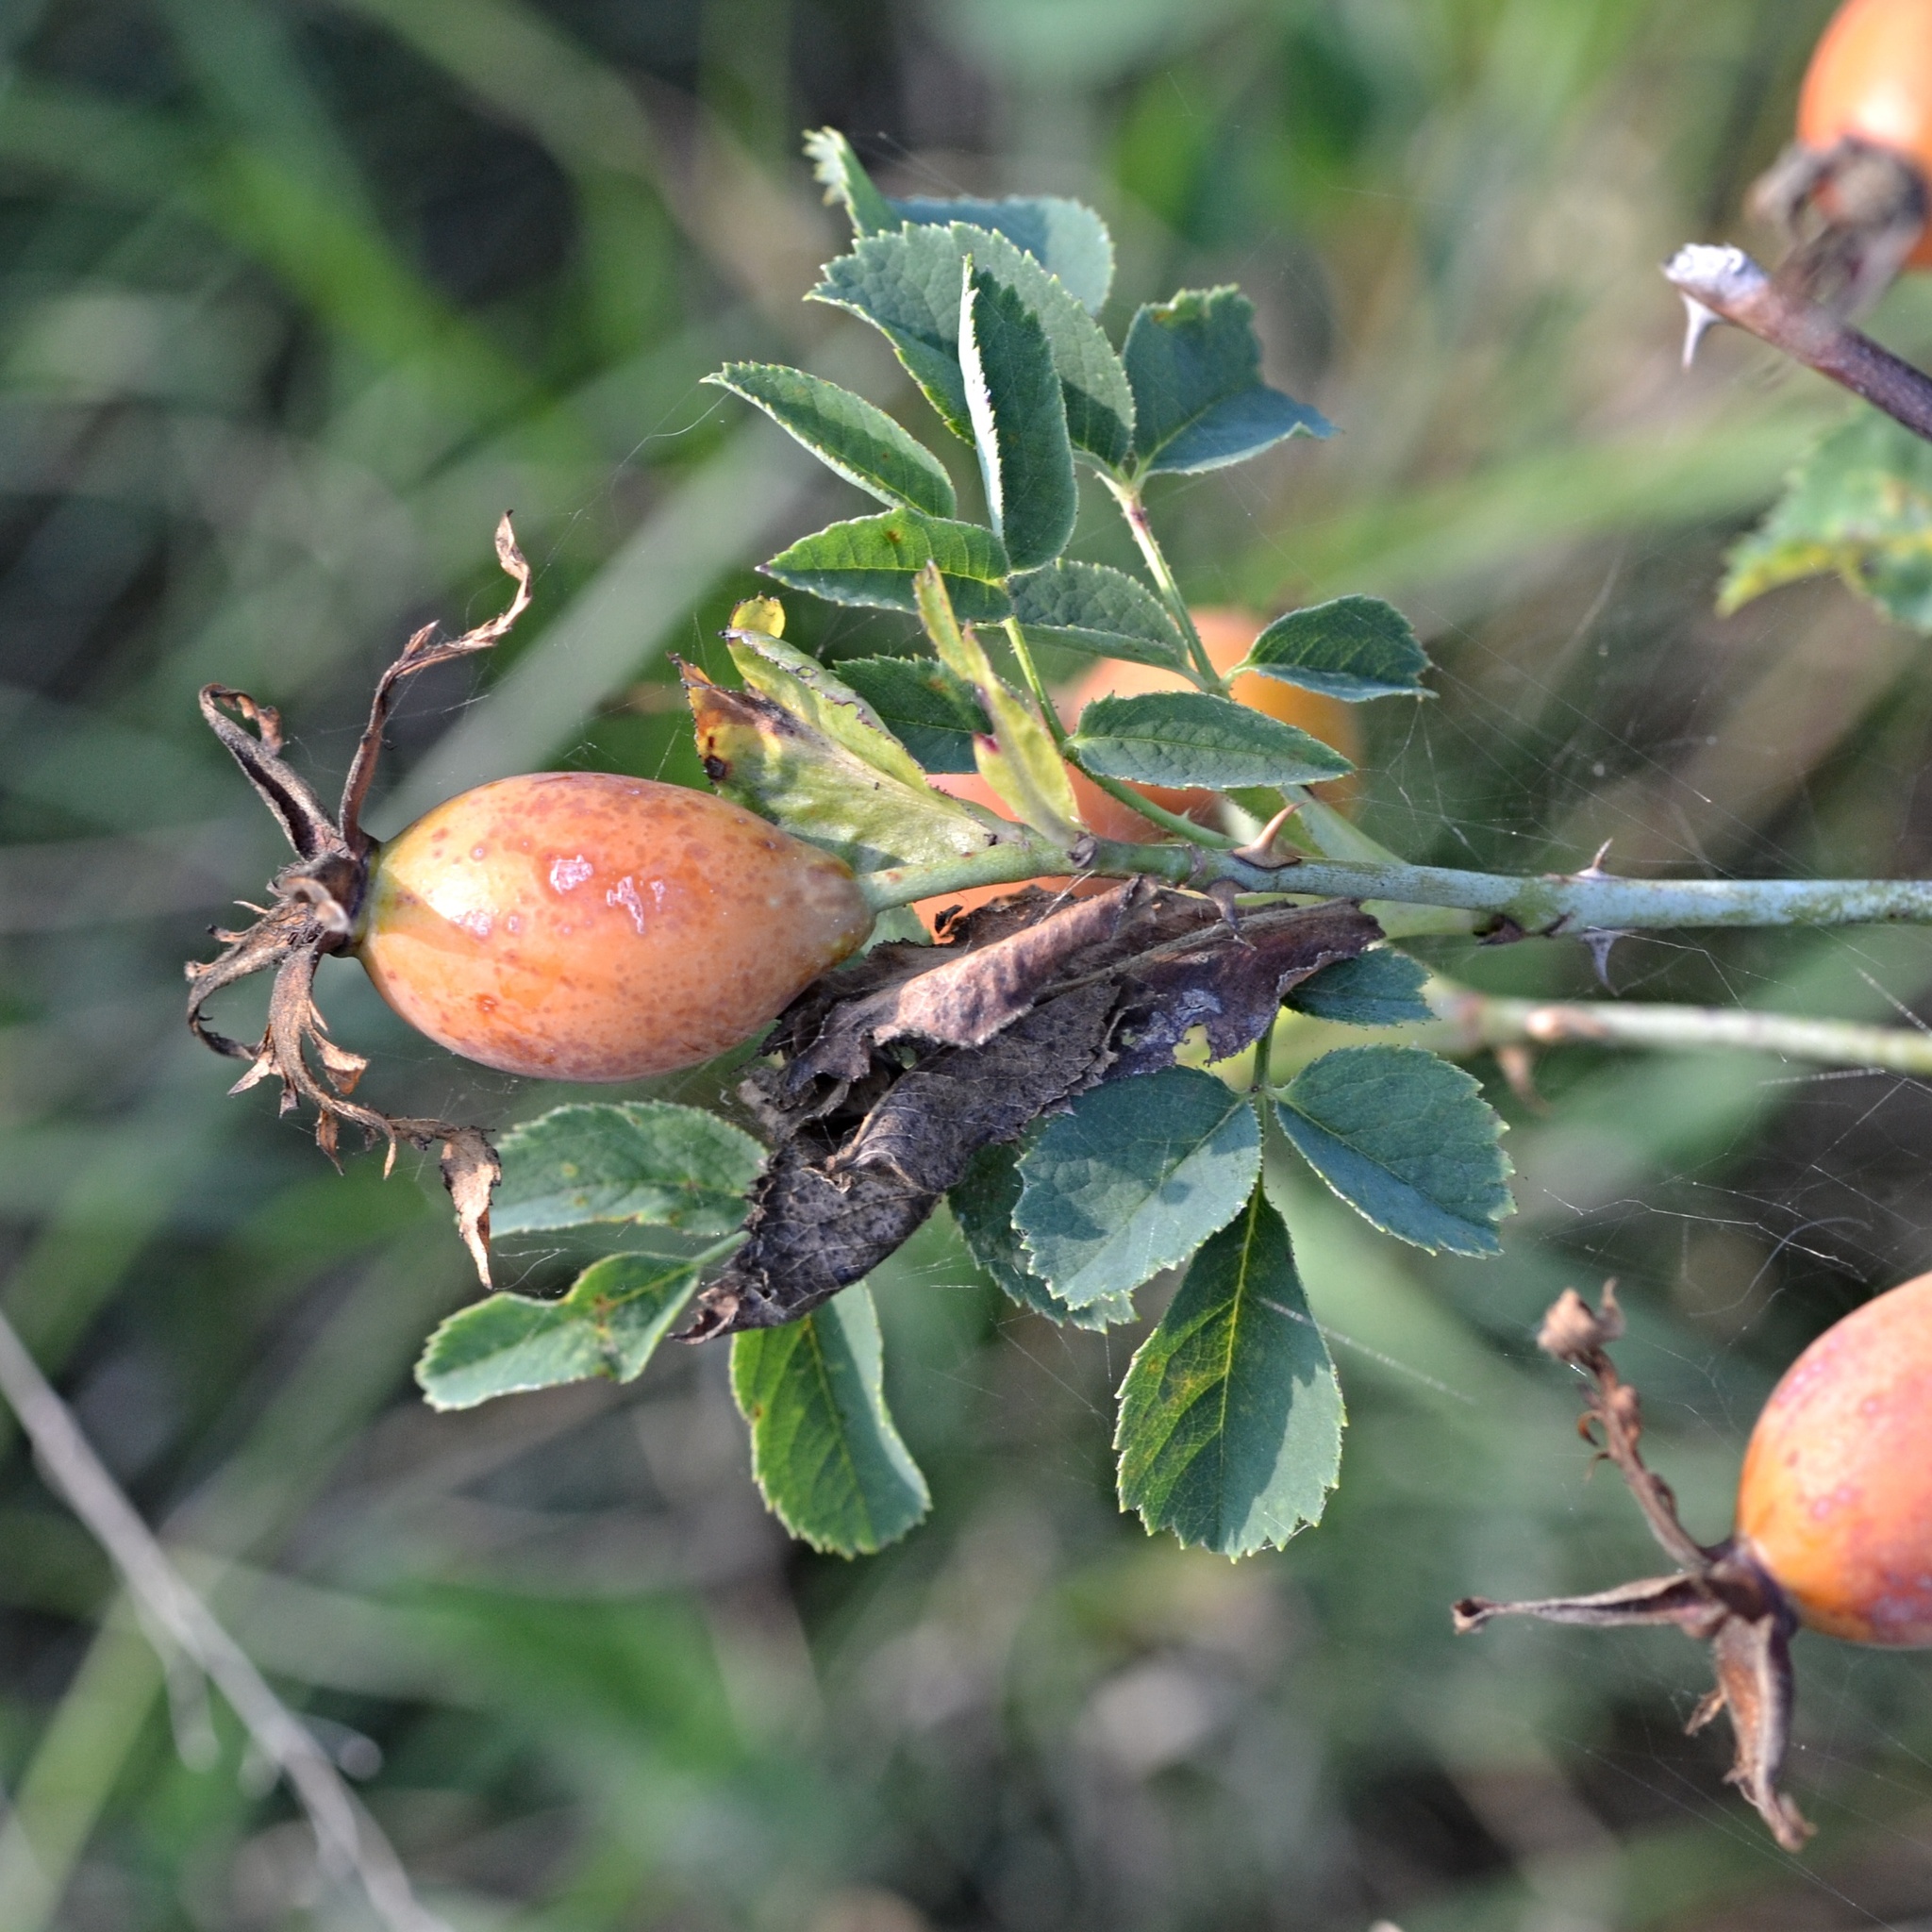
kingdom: Plantae
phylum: Tracheophyta
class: Magnoliopsida
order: Rosales
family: Rosaceae
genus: Rosa
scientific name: Rosa dumalis
